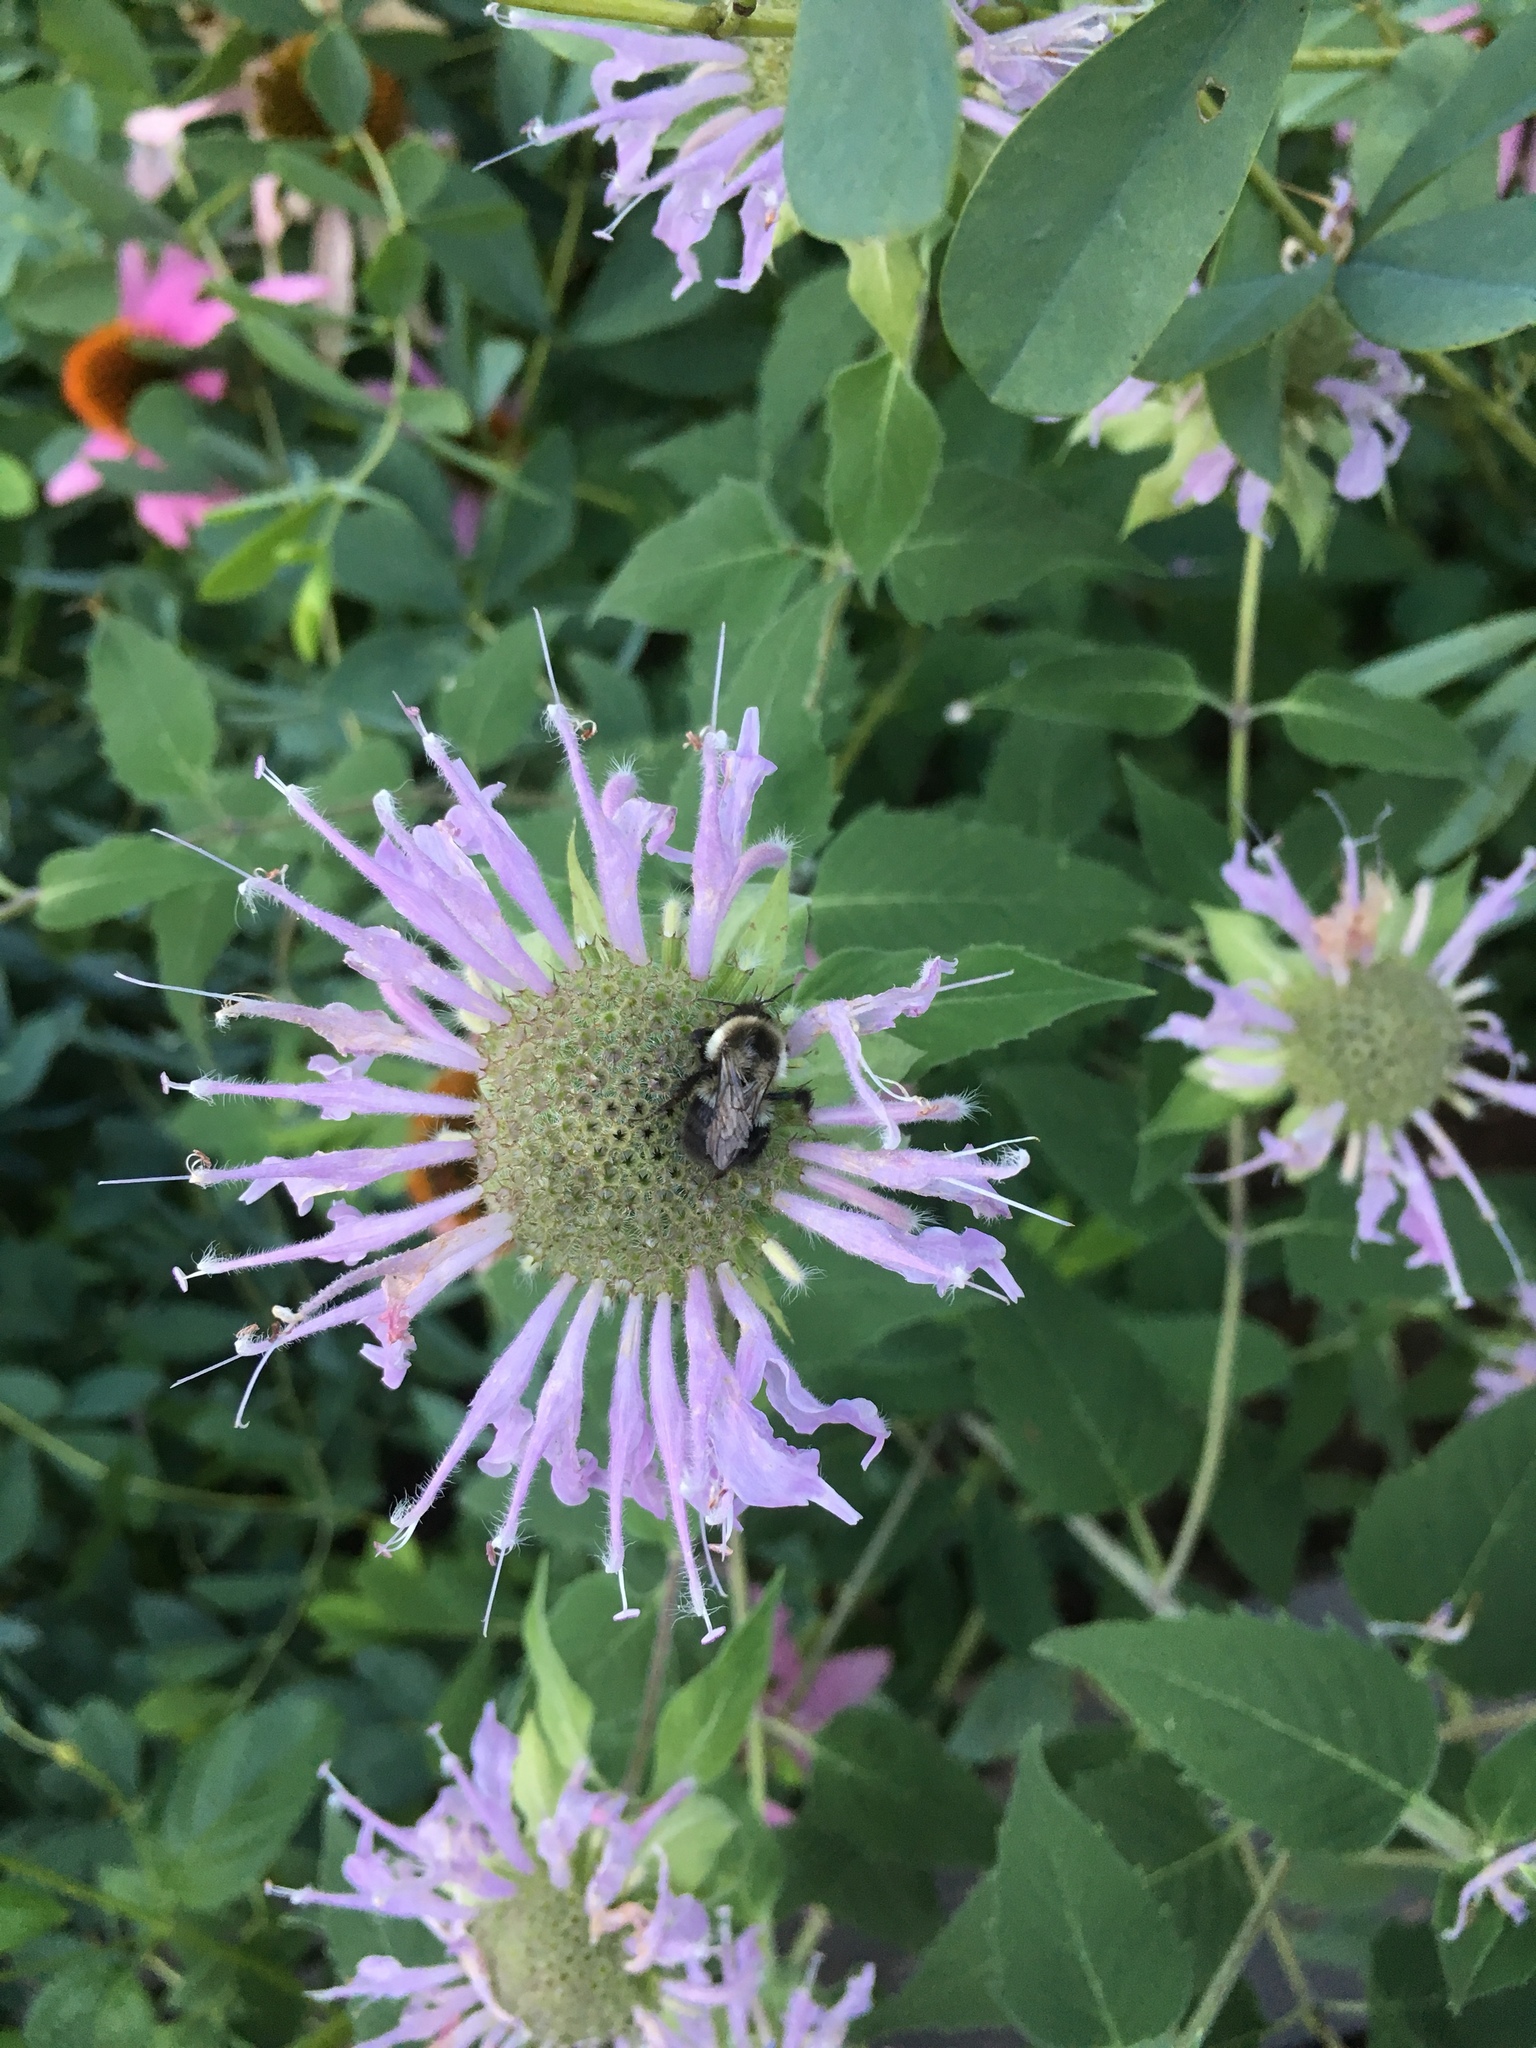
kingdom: Animalia
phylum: Arthropoda
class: Insecta
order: Hymenoptera
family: Apidae
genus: Bombus
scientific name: Bombus impatiens
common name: Common eastern bumble bee
